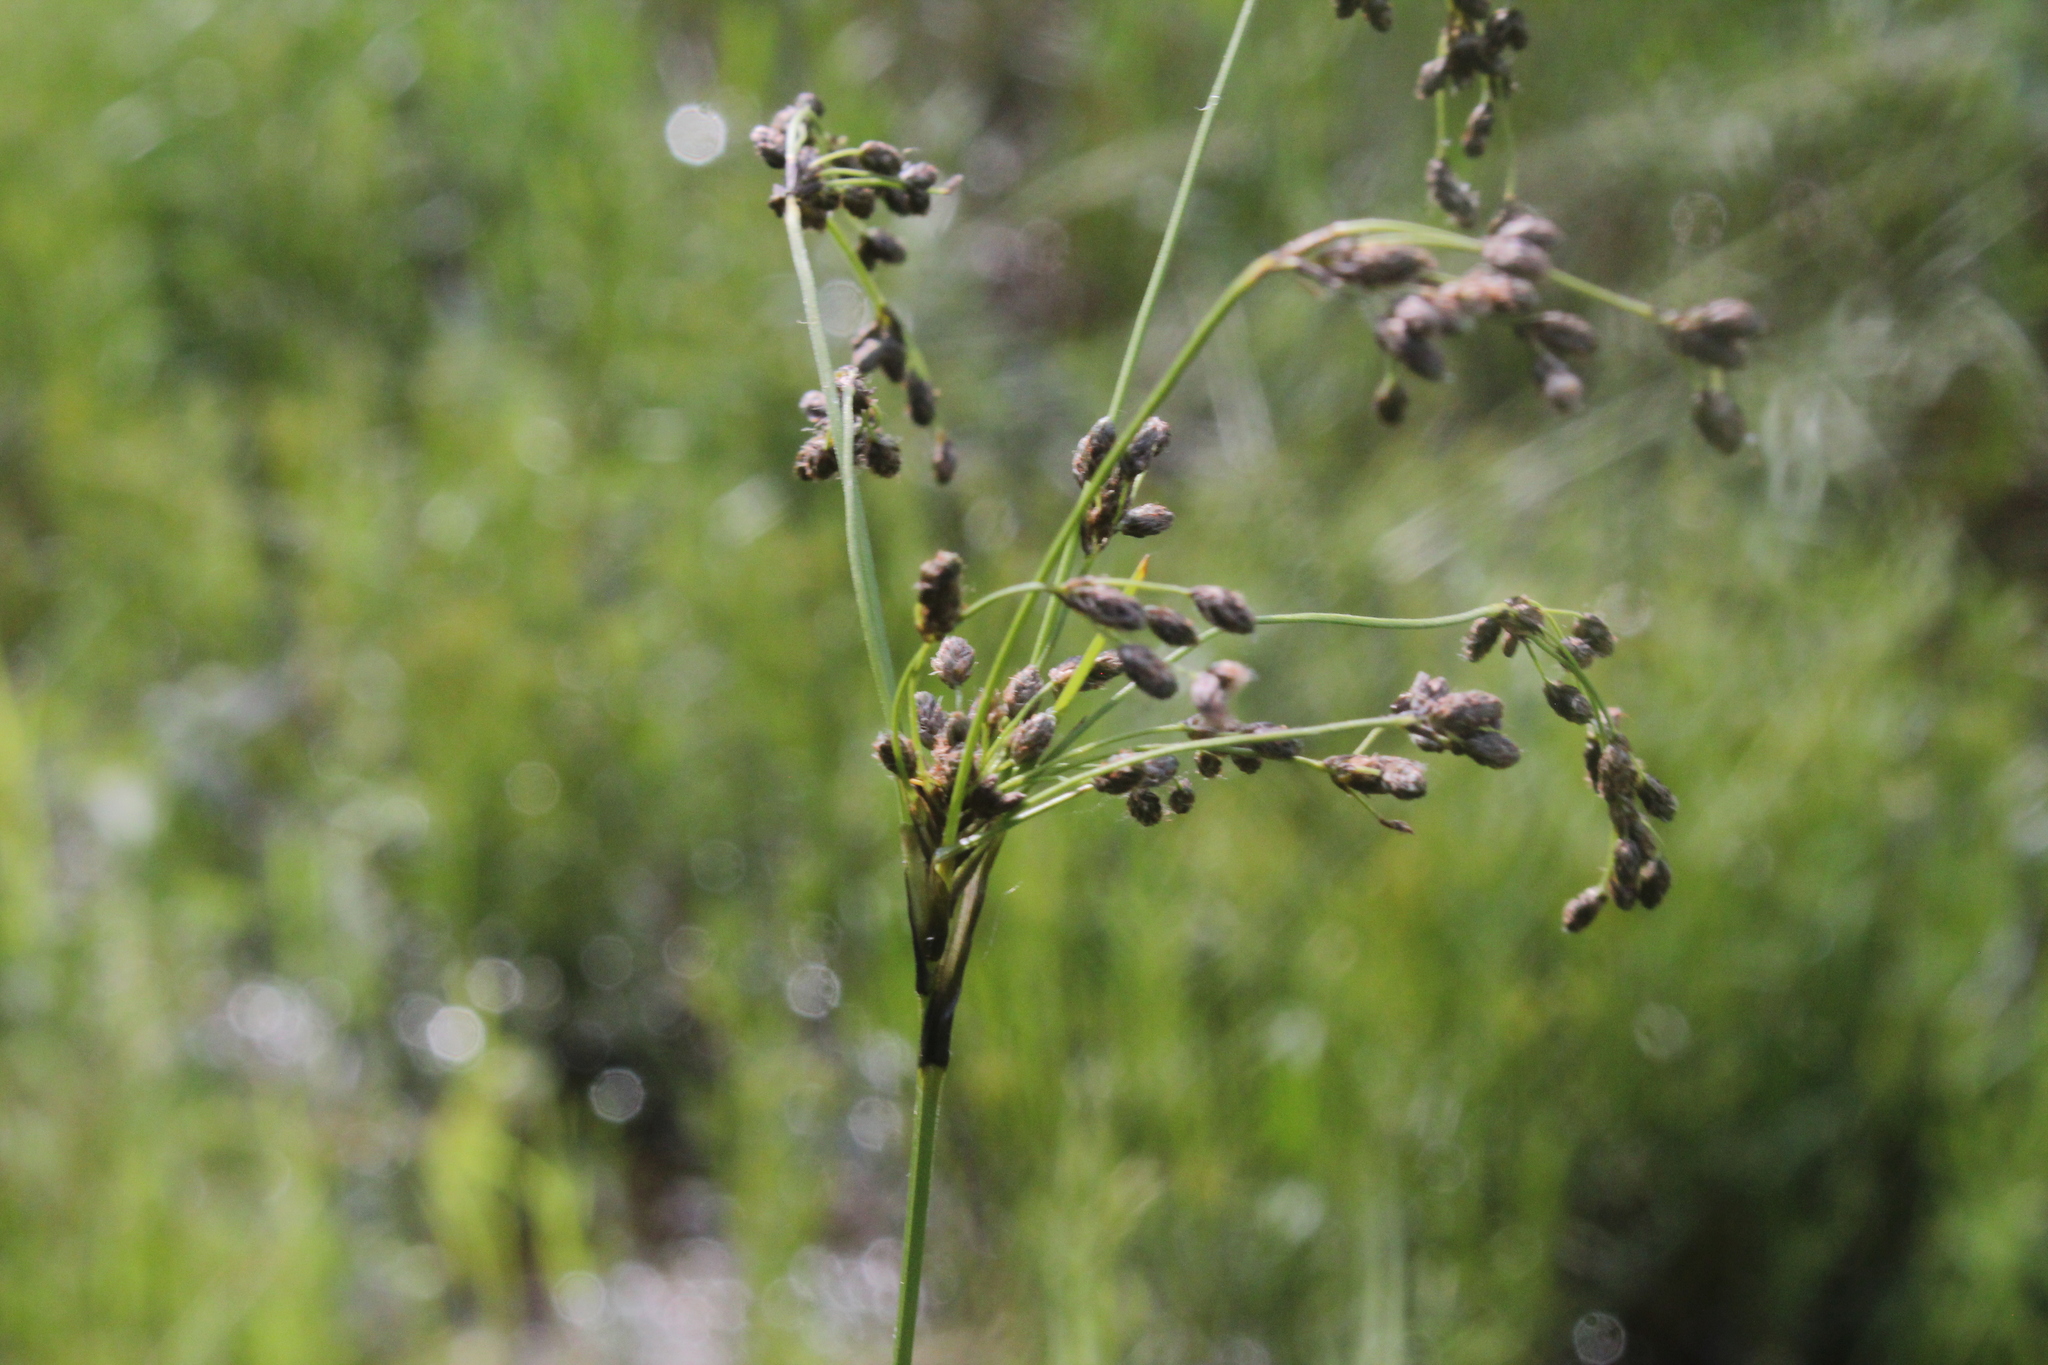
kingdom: Plantae
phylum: Tracheophyta
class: Liliopsida
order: Poales
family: Cyperaceae
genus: Scirpus
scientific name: Scirpus atrocinctus
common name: Black-girdled bulrush
